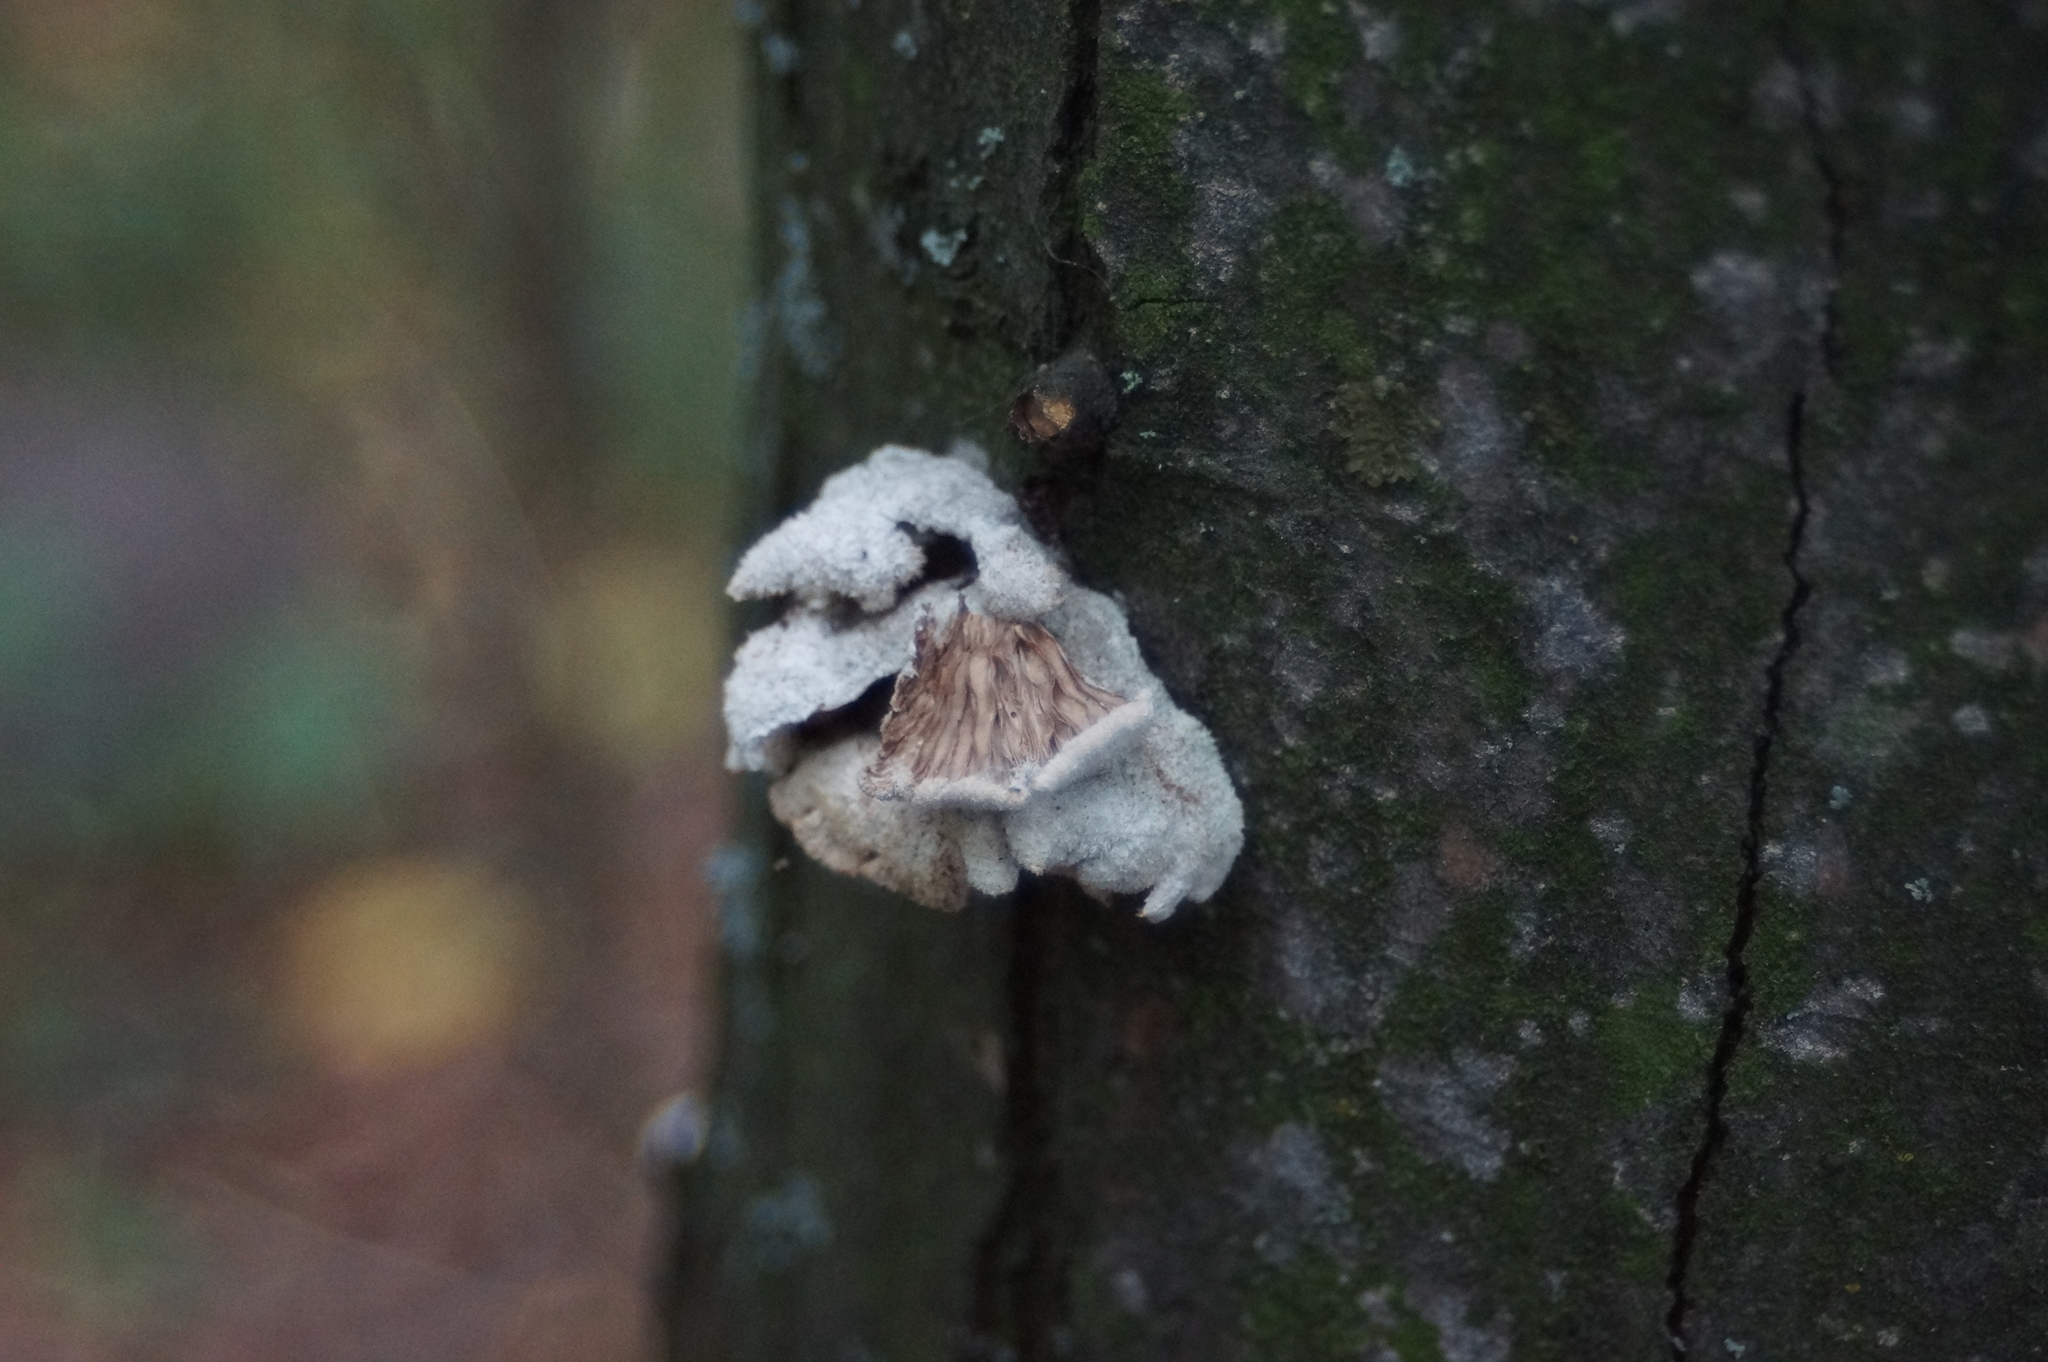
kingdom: Fungi
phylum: Basidiomycota
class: Agaricomycetes
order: Agaricales
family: Schizophyllaceae
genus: Schizophyllum
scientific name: Schizophyllum commune
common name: Common porecrust
